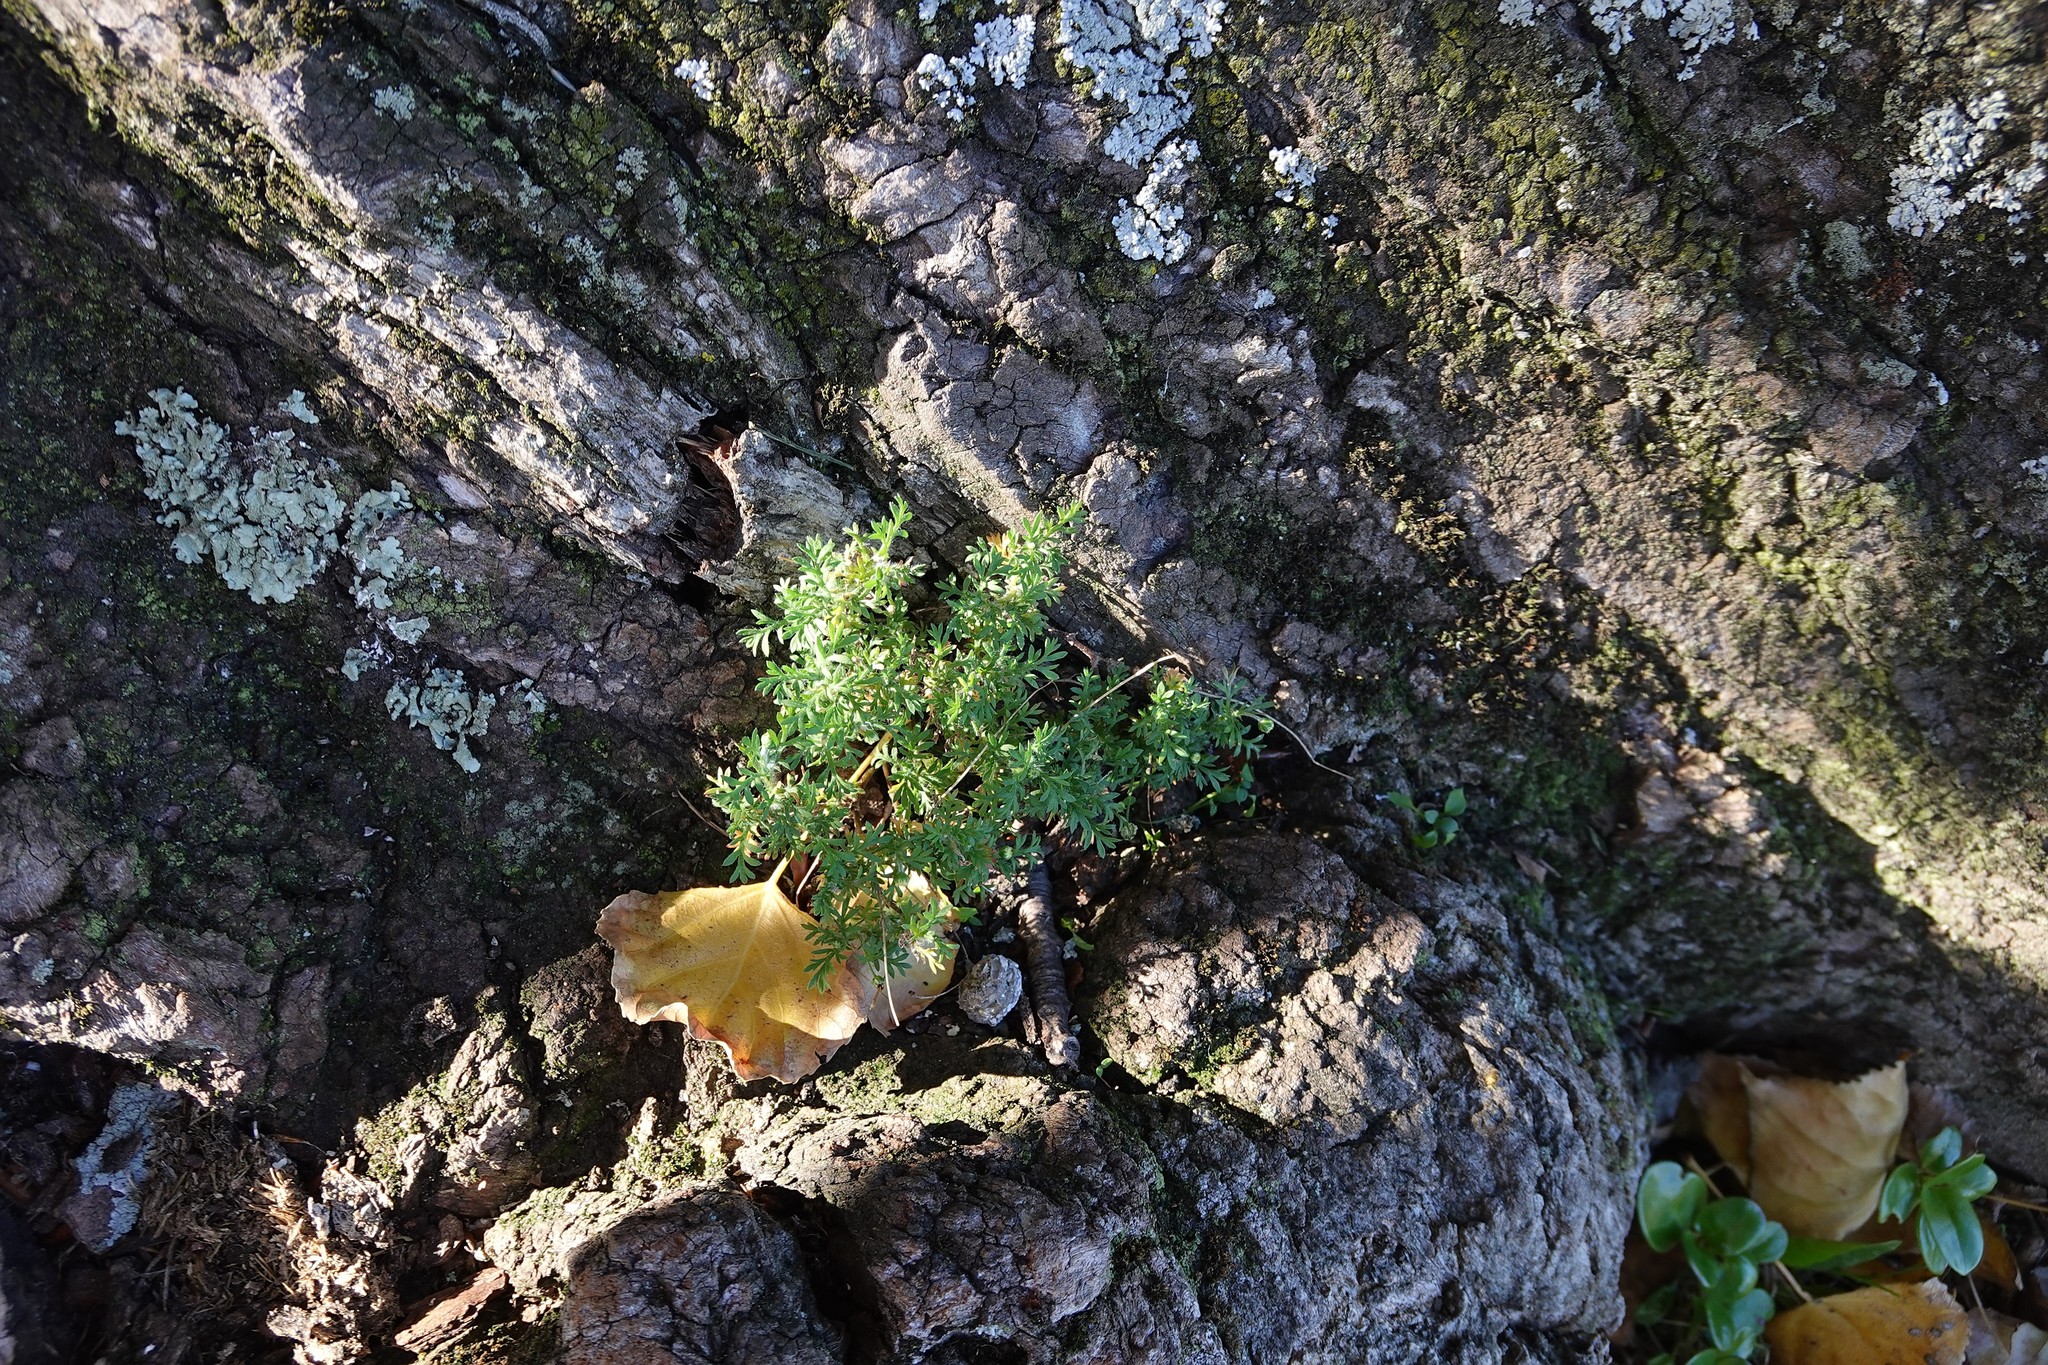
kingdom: Plantae
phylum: Tracheophyta
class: Magnoliopsida
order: Asterales
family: Asteraceae
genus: Cotula
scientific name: Cotula australis
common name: Australian waterbuttons
